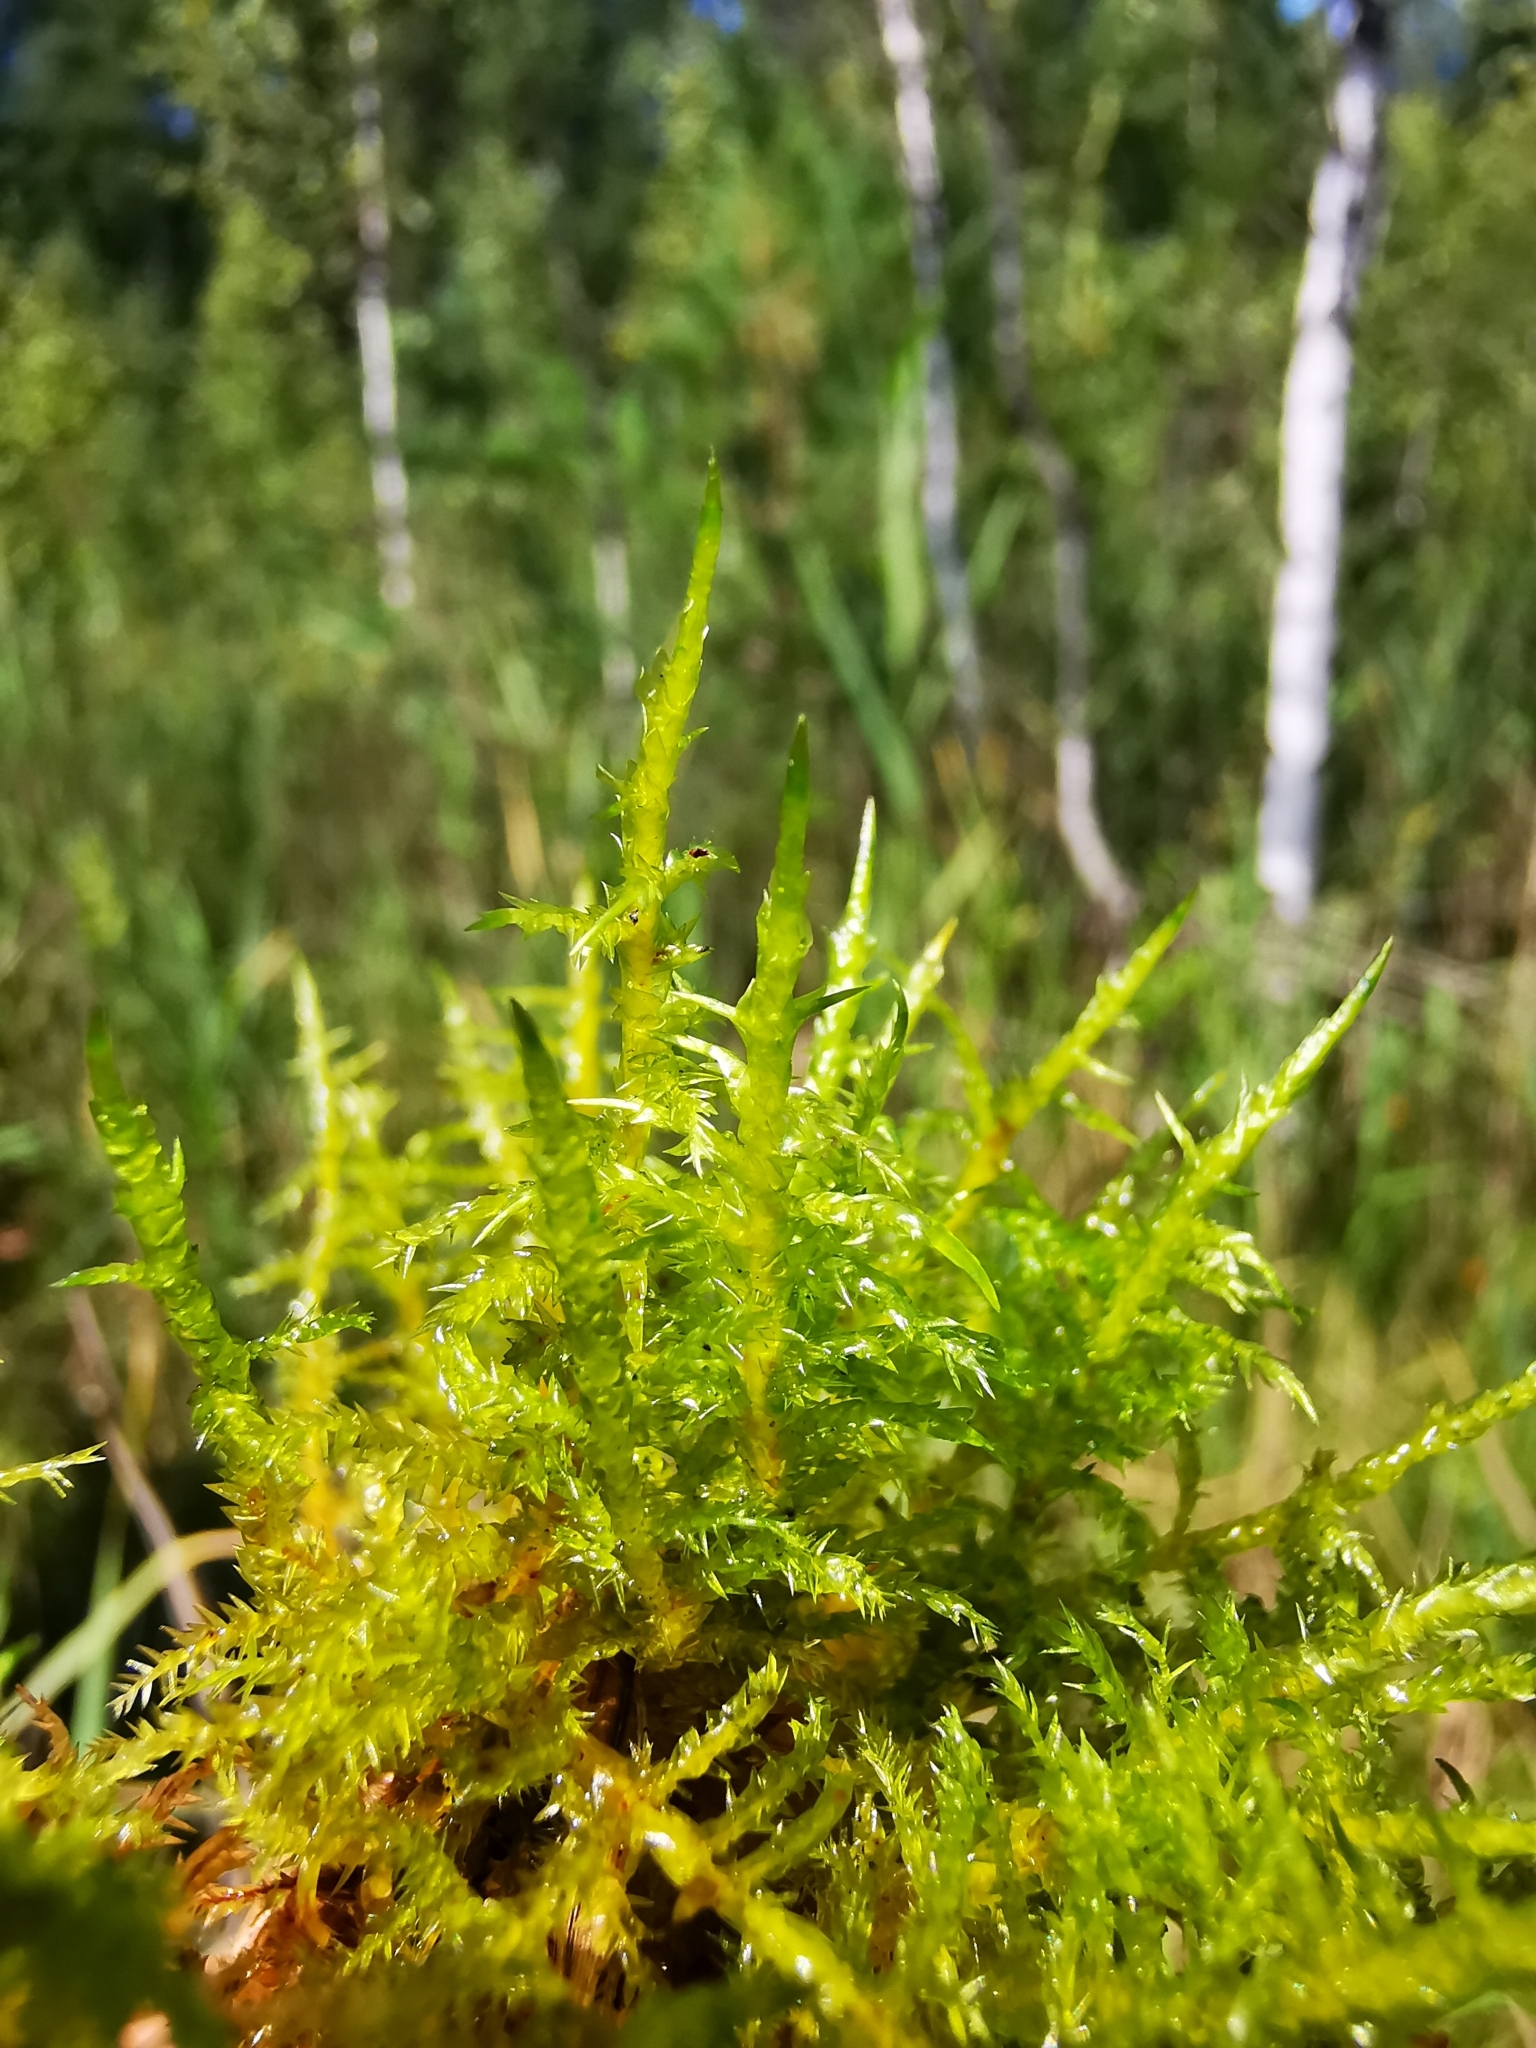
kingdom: Plantae
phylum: Bryophyta
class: Bryopsida
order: Hypnales
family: Pylaisiaceae
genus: Calliergonella
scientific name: Calliergonella cuspidata
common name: Common large wetland moss
